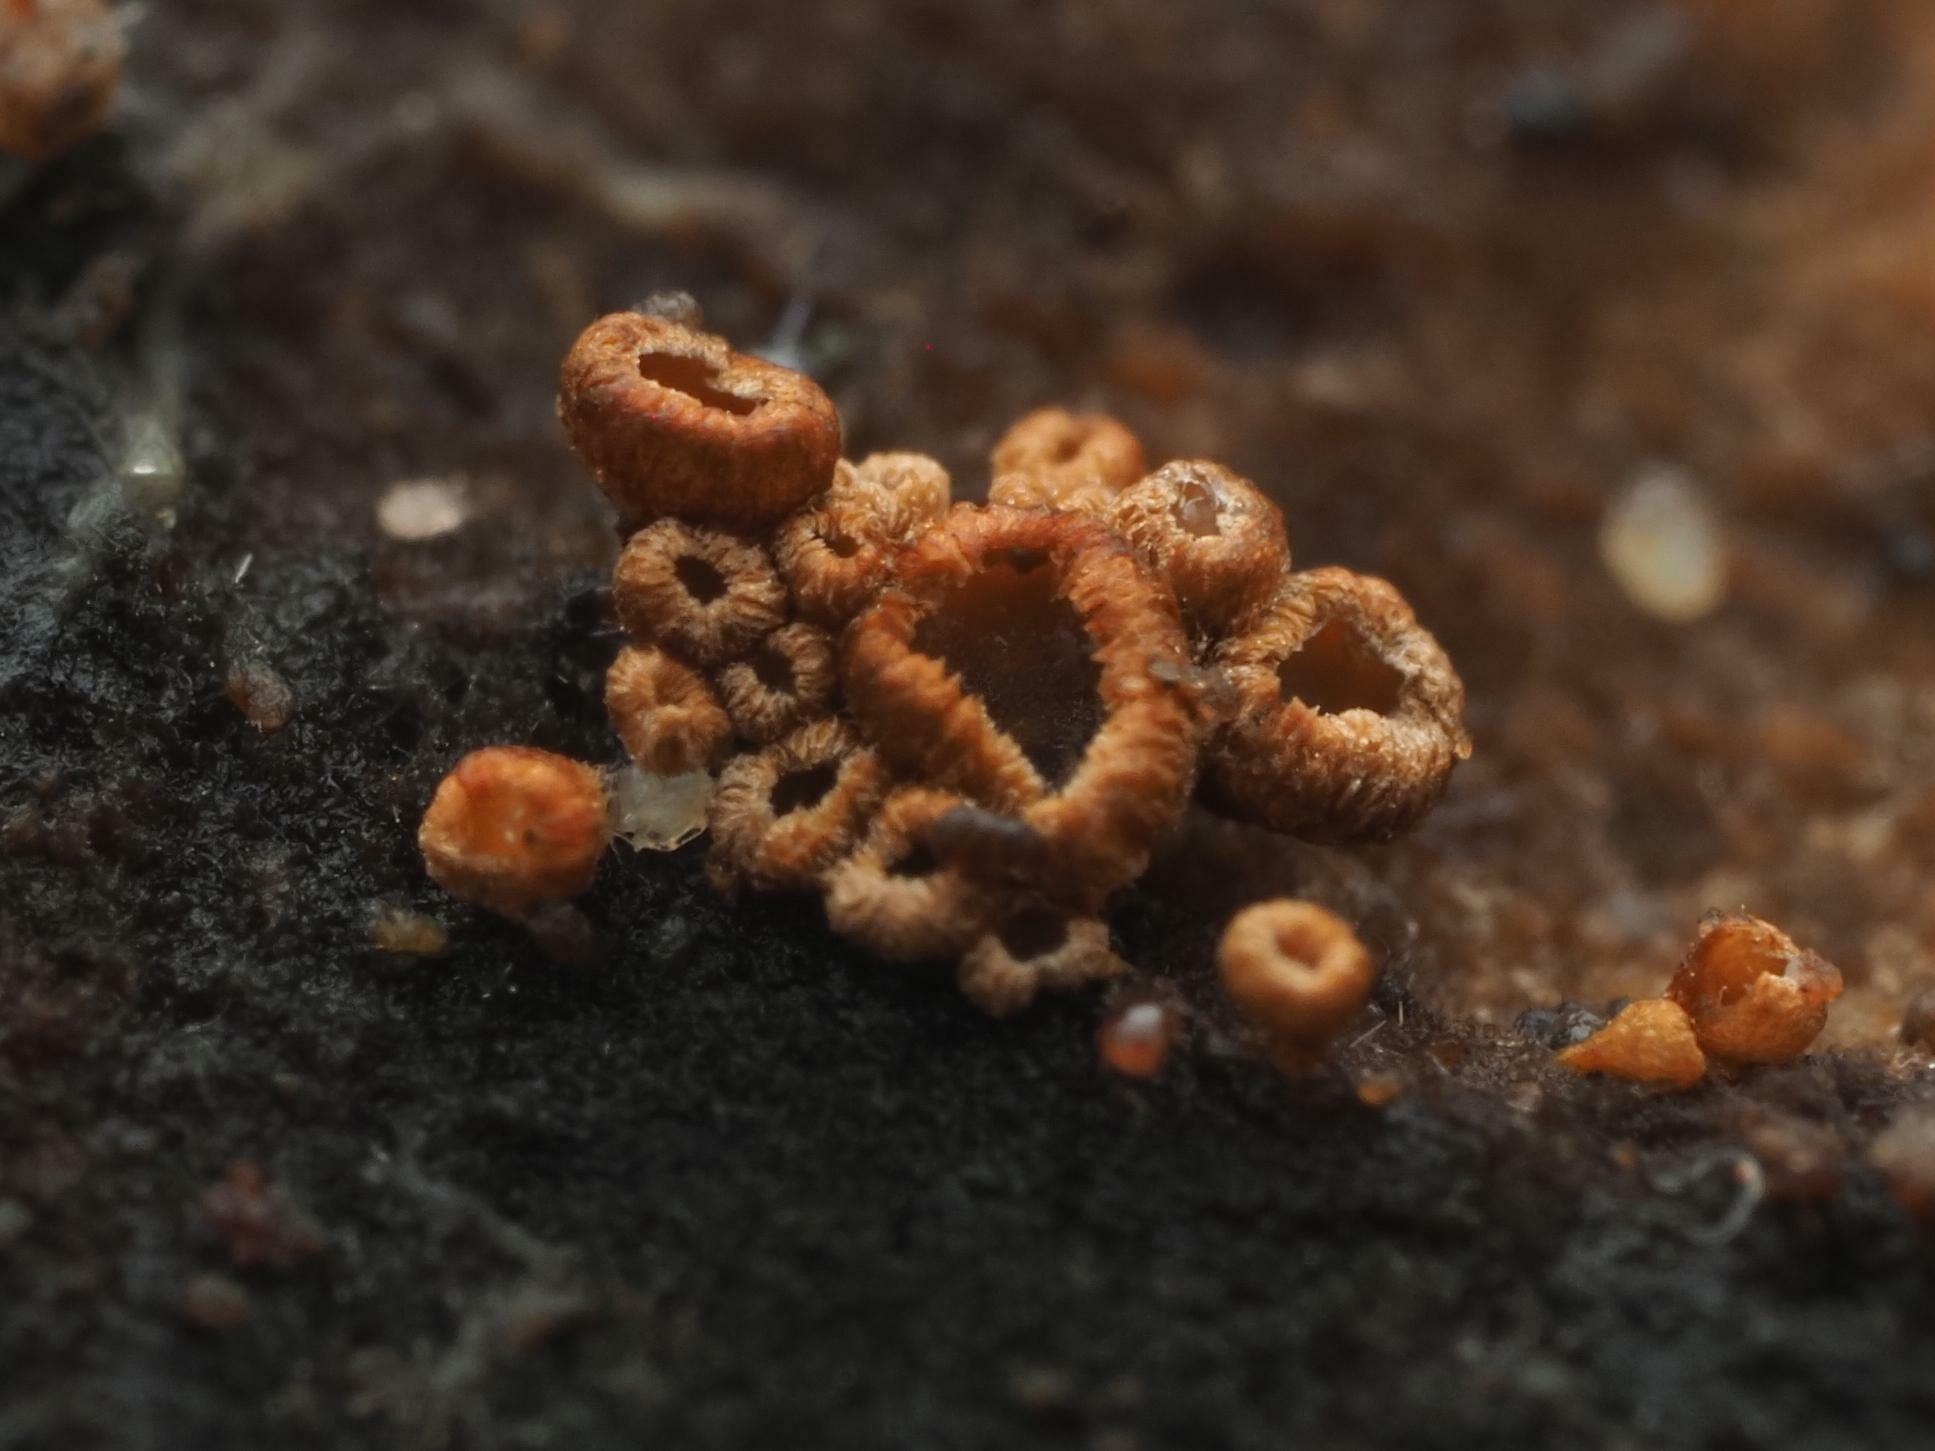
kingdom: Fungi
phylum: Basidiomycota
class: Agaricomycetes
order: Agaricales
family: Niaceae
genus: Merismodes
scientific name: Merismodes fasciculata
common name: Crowded cuplet
